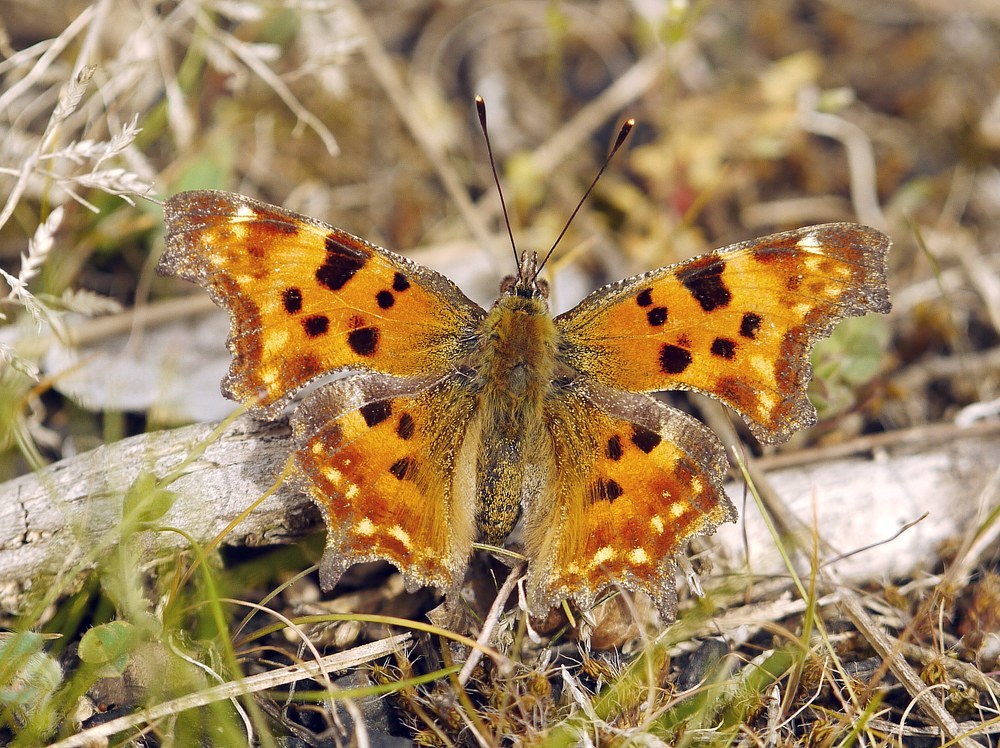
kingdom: Animalia
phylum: Arthropoda
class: Insecta
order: Lepidoptera
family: Nymphalidae
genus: Polygonia
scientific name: Polygonia c-album
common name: Comma
